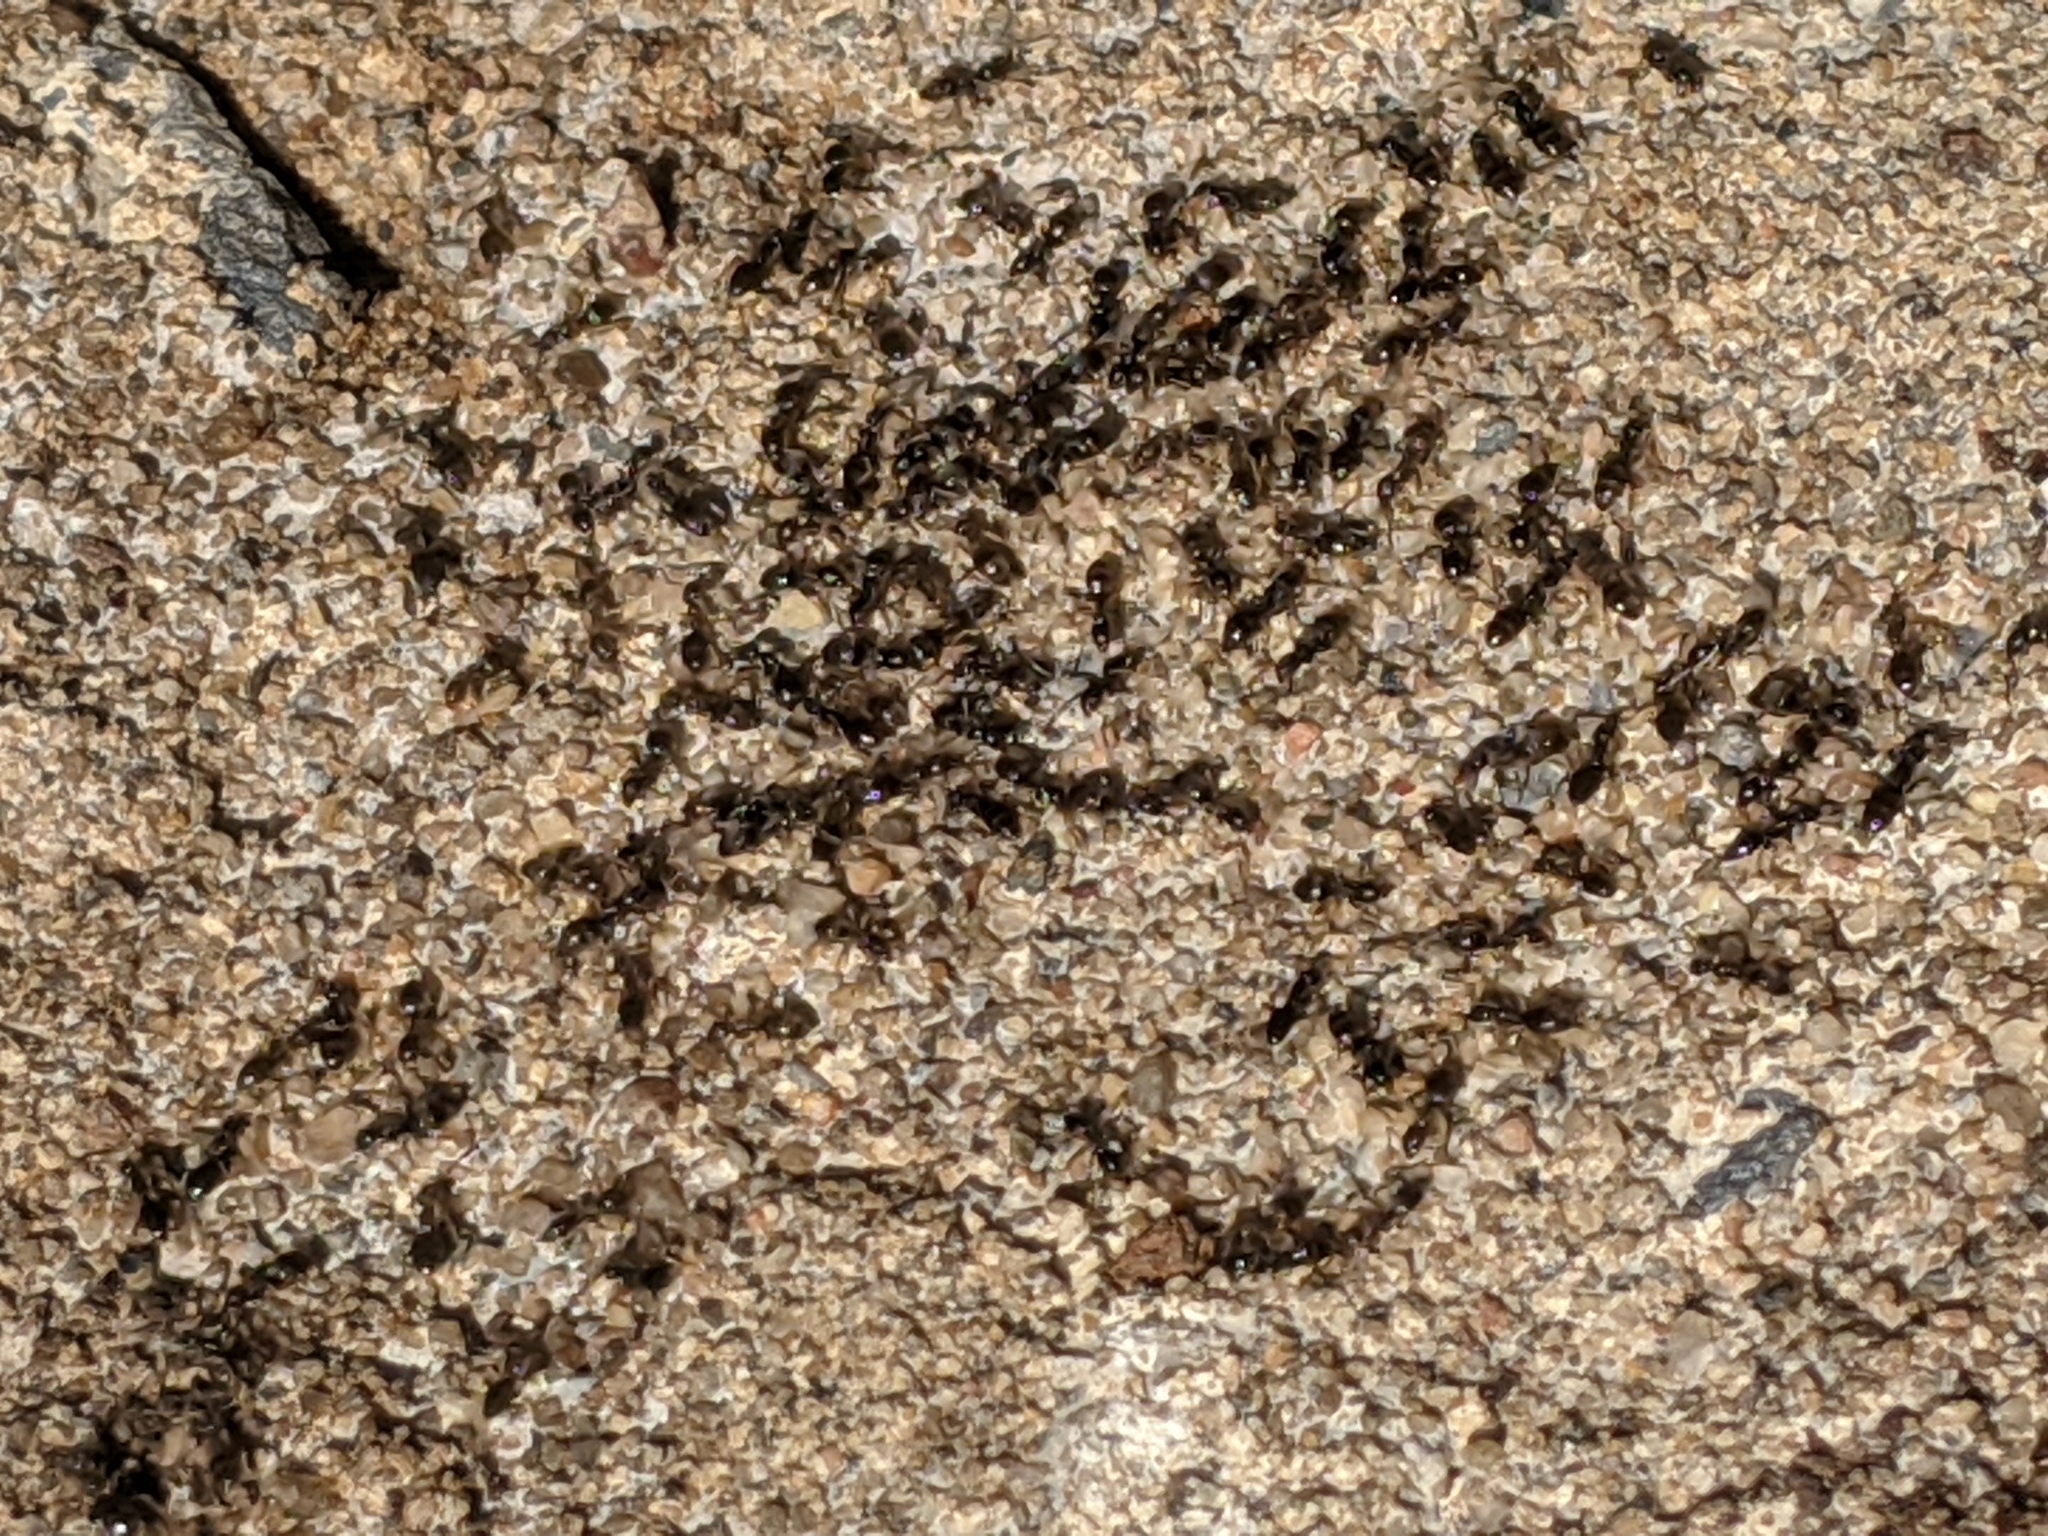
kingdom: Animalia
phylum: Arthropoda
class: Insecta
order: Hymenoptera
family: Formicidae
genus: Tapinoma
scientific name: Tapinoma sessile
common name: Odorous house ant
